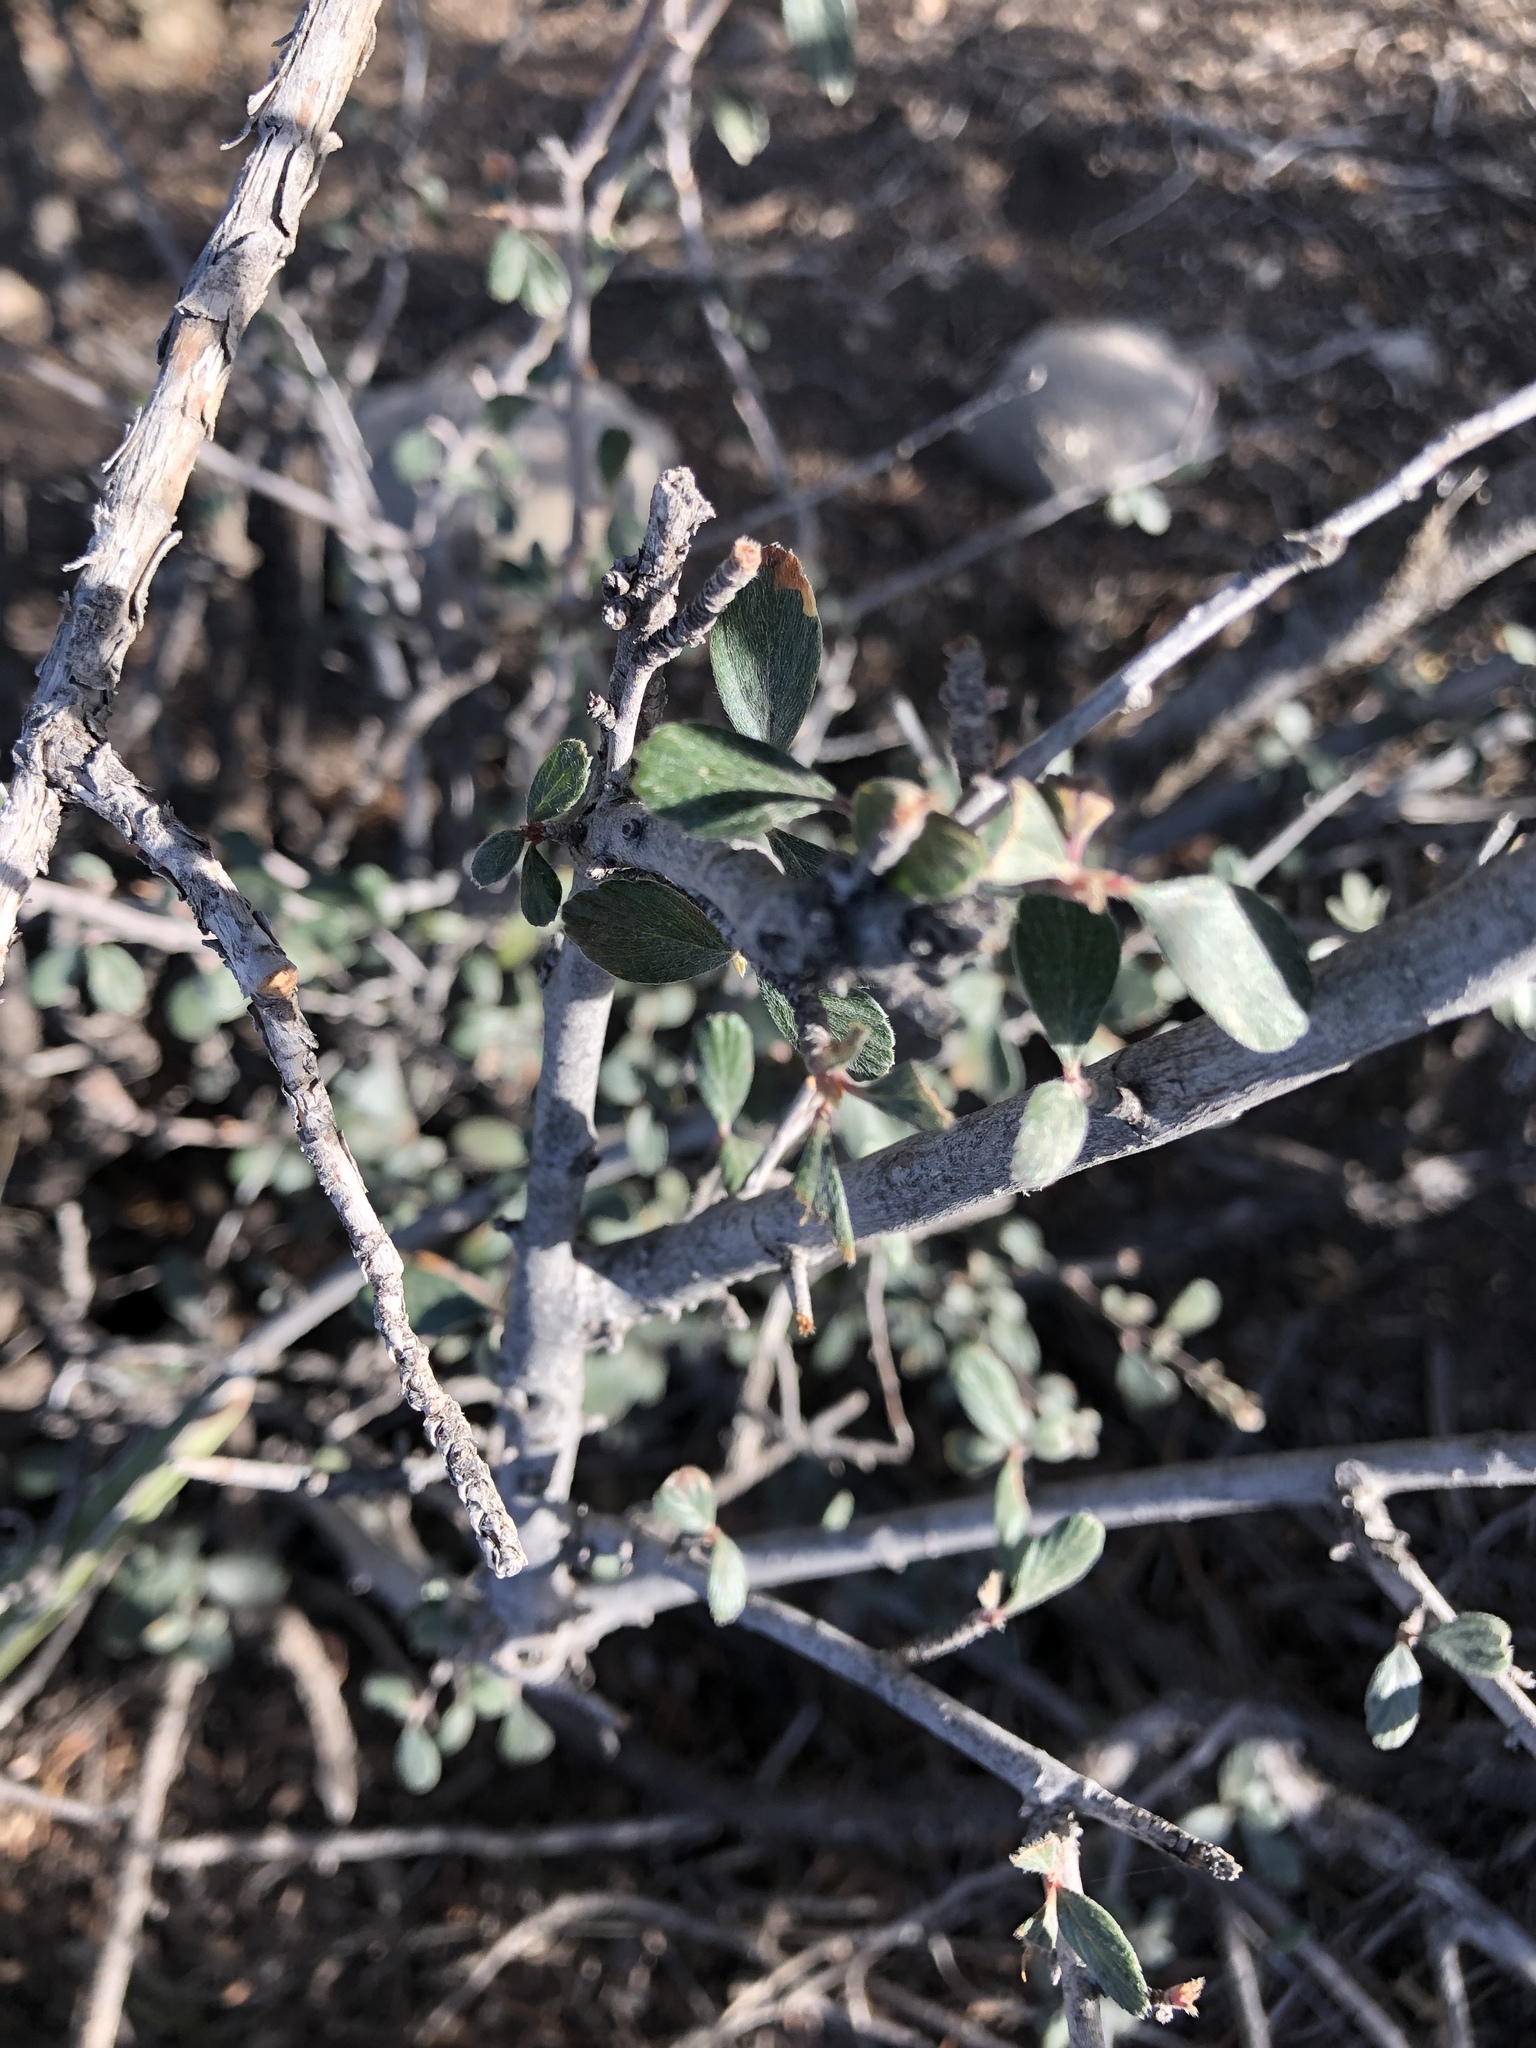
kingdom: Plantae
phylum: Tracheophyta
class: Magnoliopsida
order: Rosales
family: Rosaceae
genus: Cercocarpus
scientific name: Cercocarpus breviflorus
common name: Wright's mountain-mahogany
